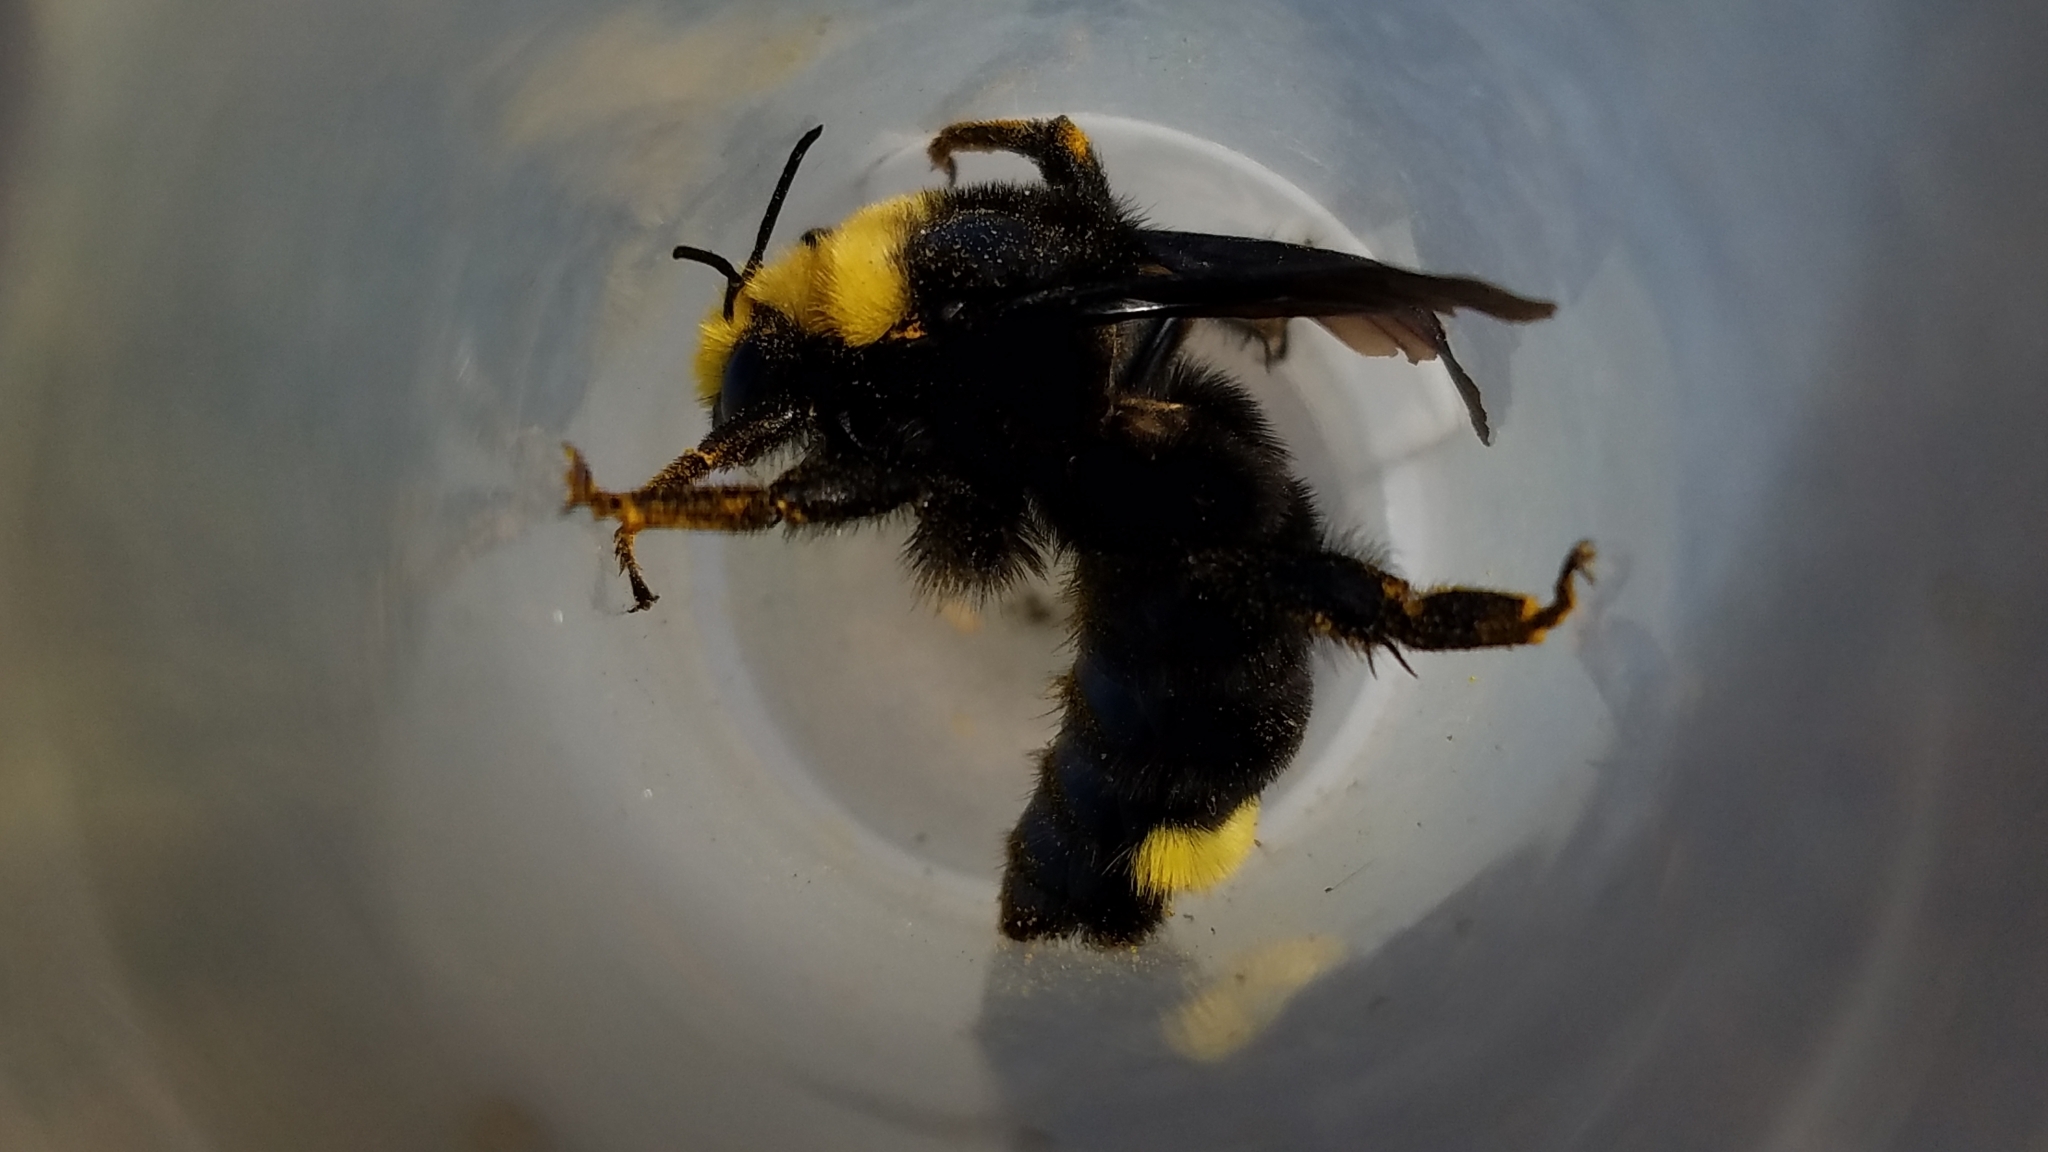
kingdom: Animalia
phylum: Arthropoda
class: Insecta
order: Hymenoptera
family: Apidae
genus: Bombus
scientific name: Bombus vosnesenskii
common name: Vosnesensky bumble bee
